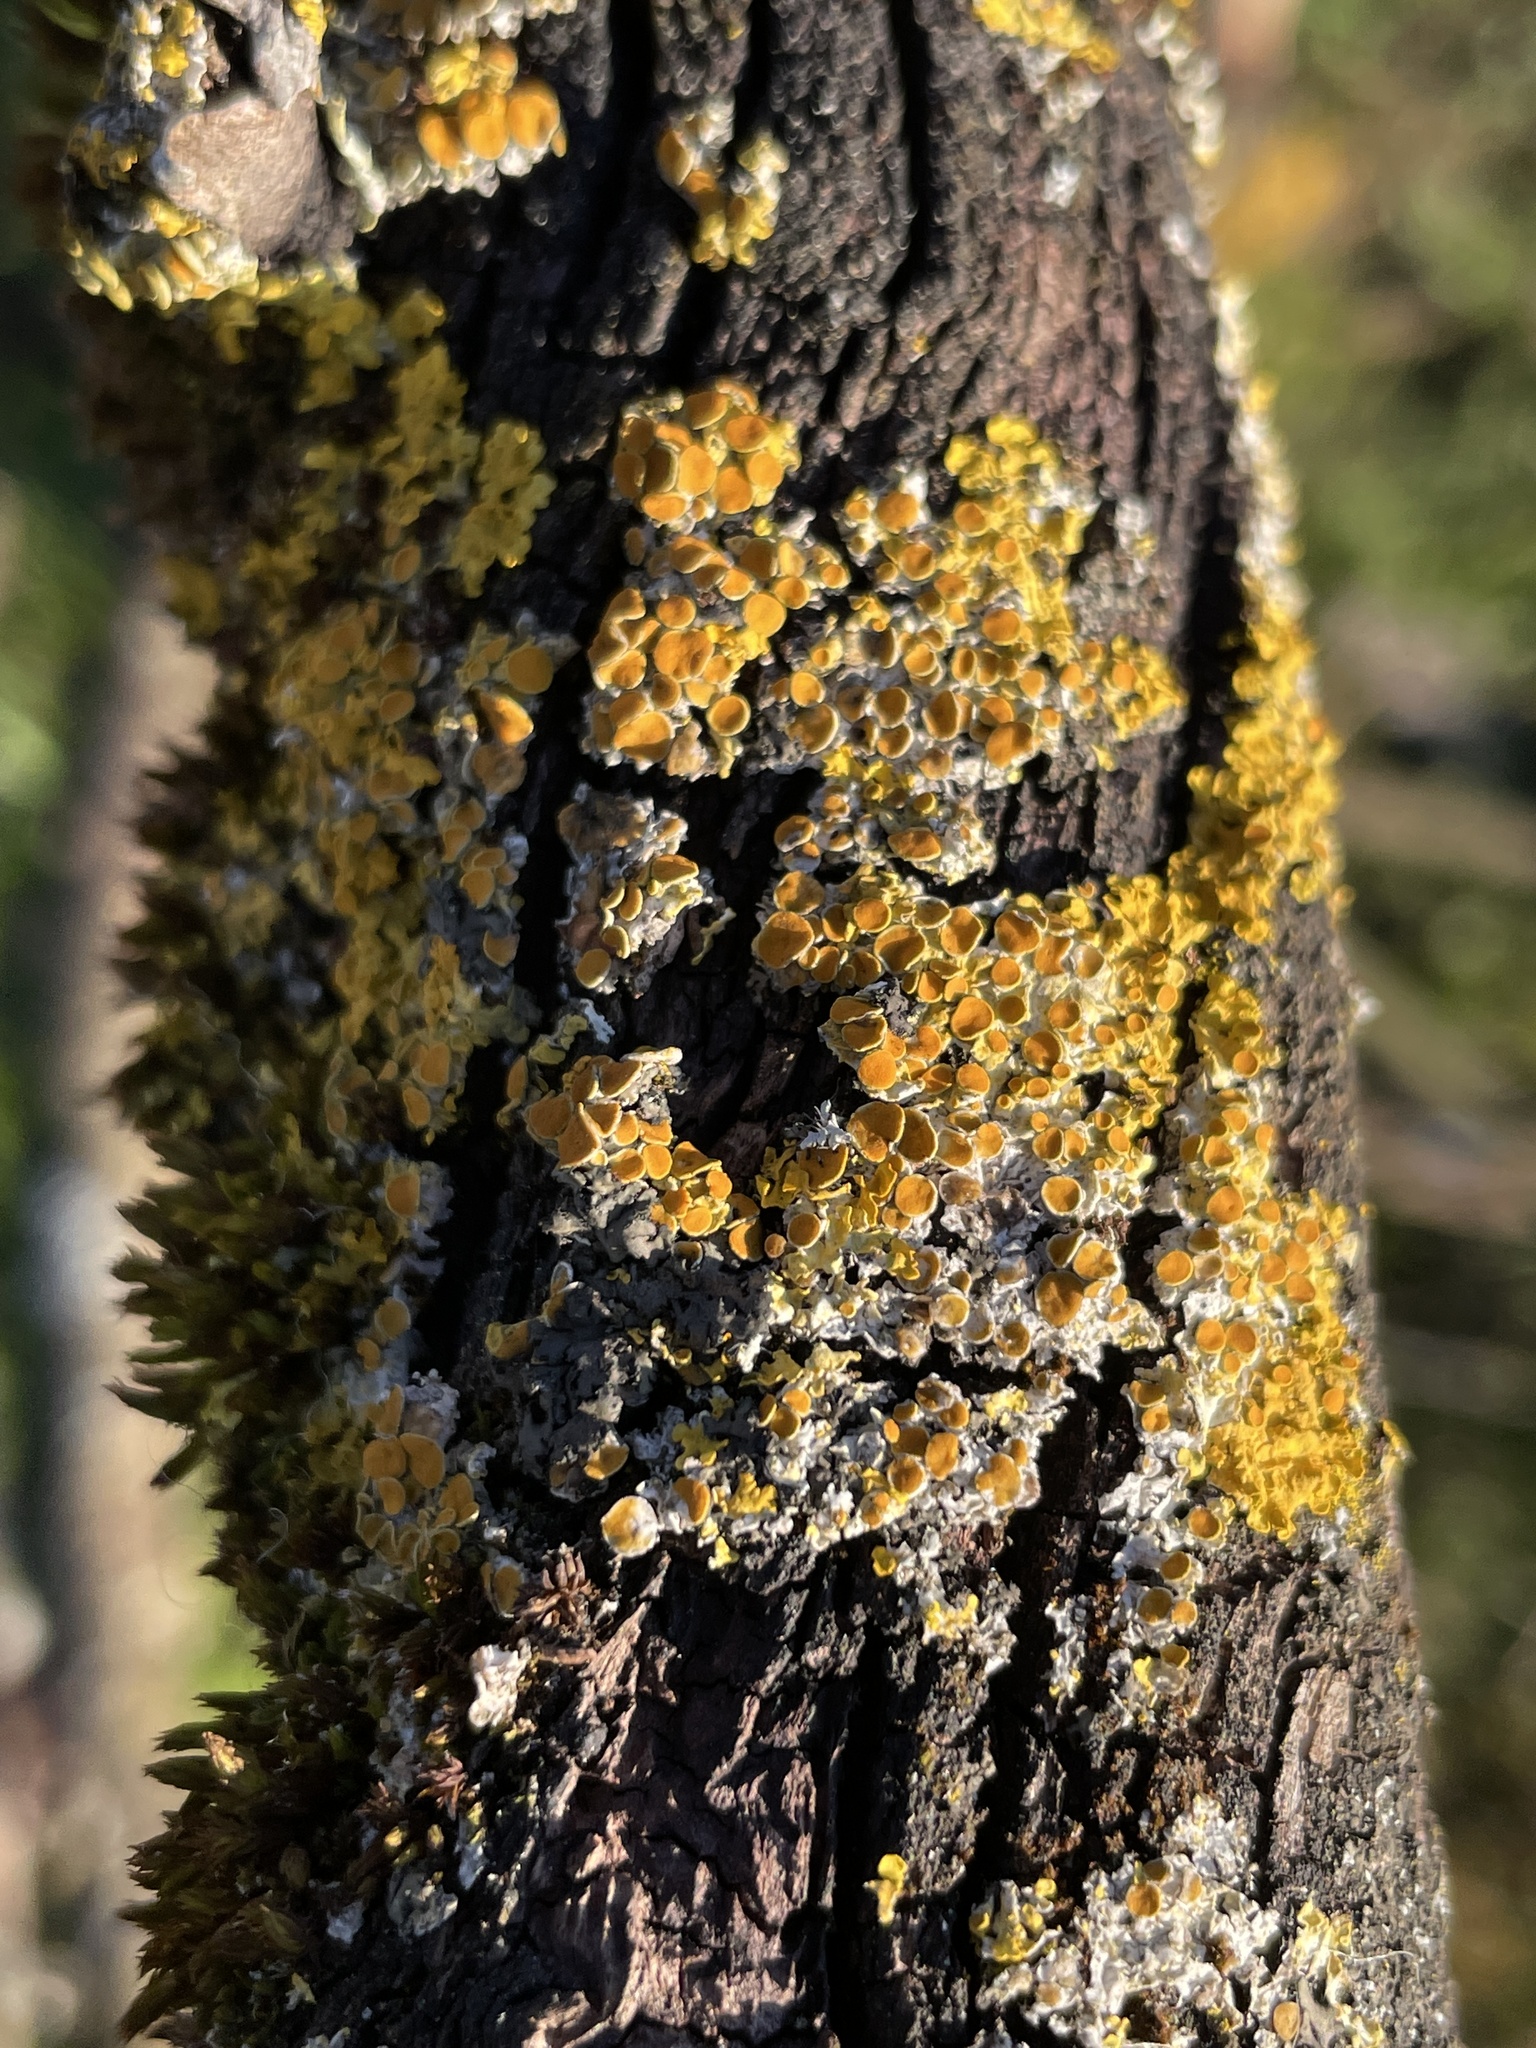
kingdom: Fungi
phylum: Ascomycota
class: Lecanoromycetes
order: Teloschistales
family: Teloschistaceae
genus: Xanthoria
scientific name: Xanthoria parietina
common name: Common orange lichen
